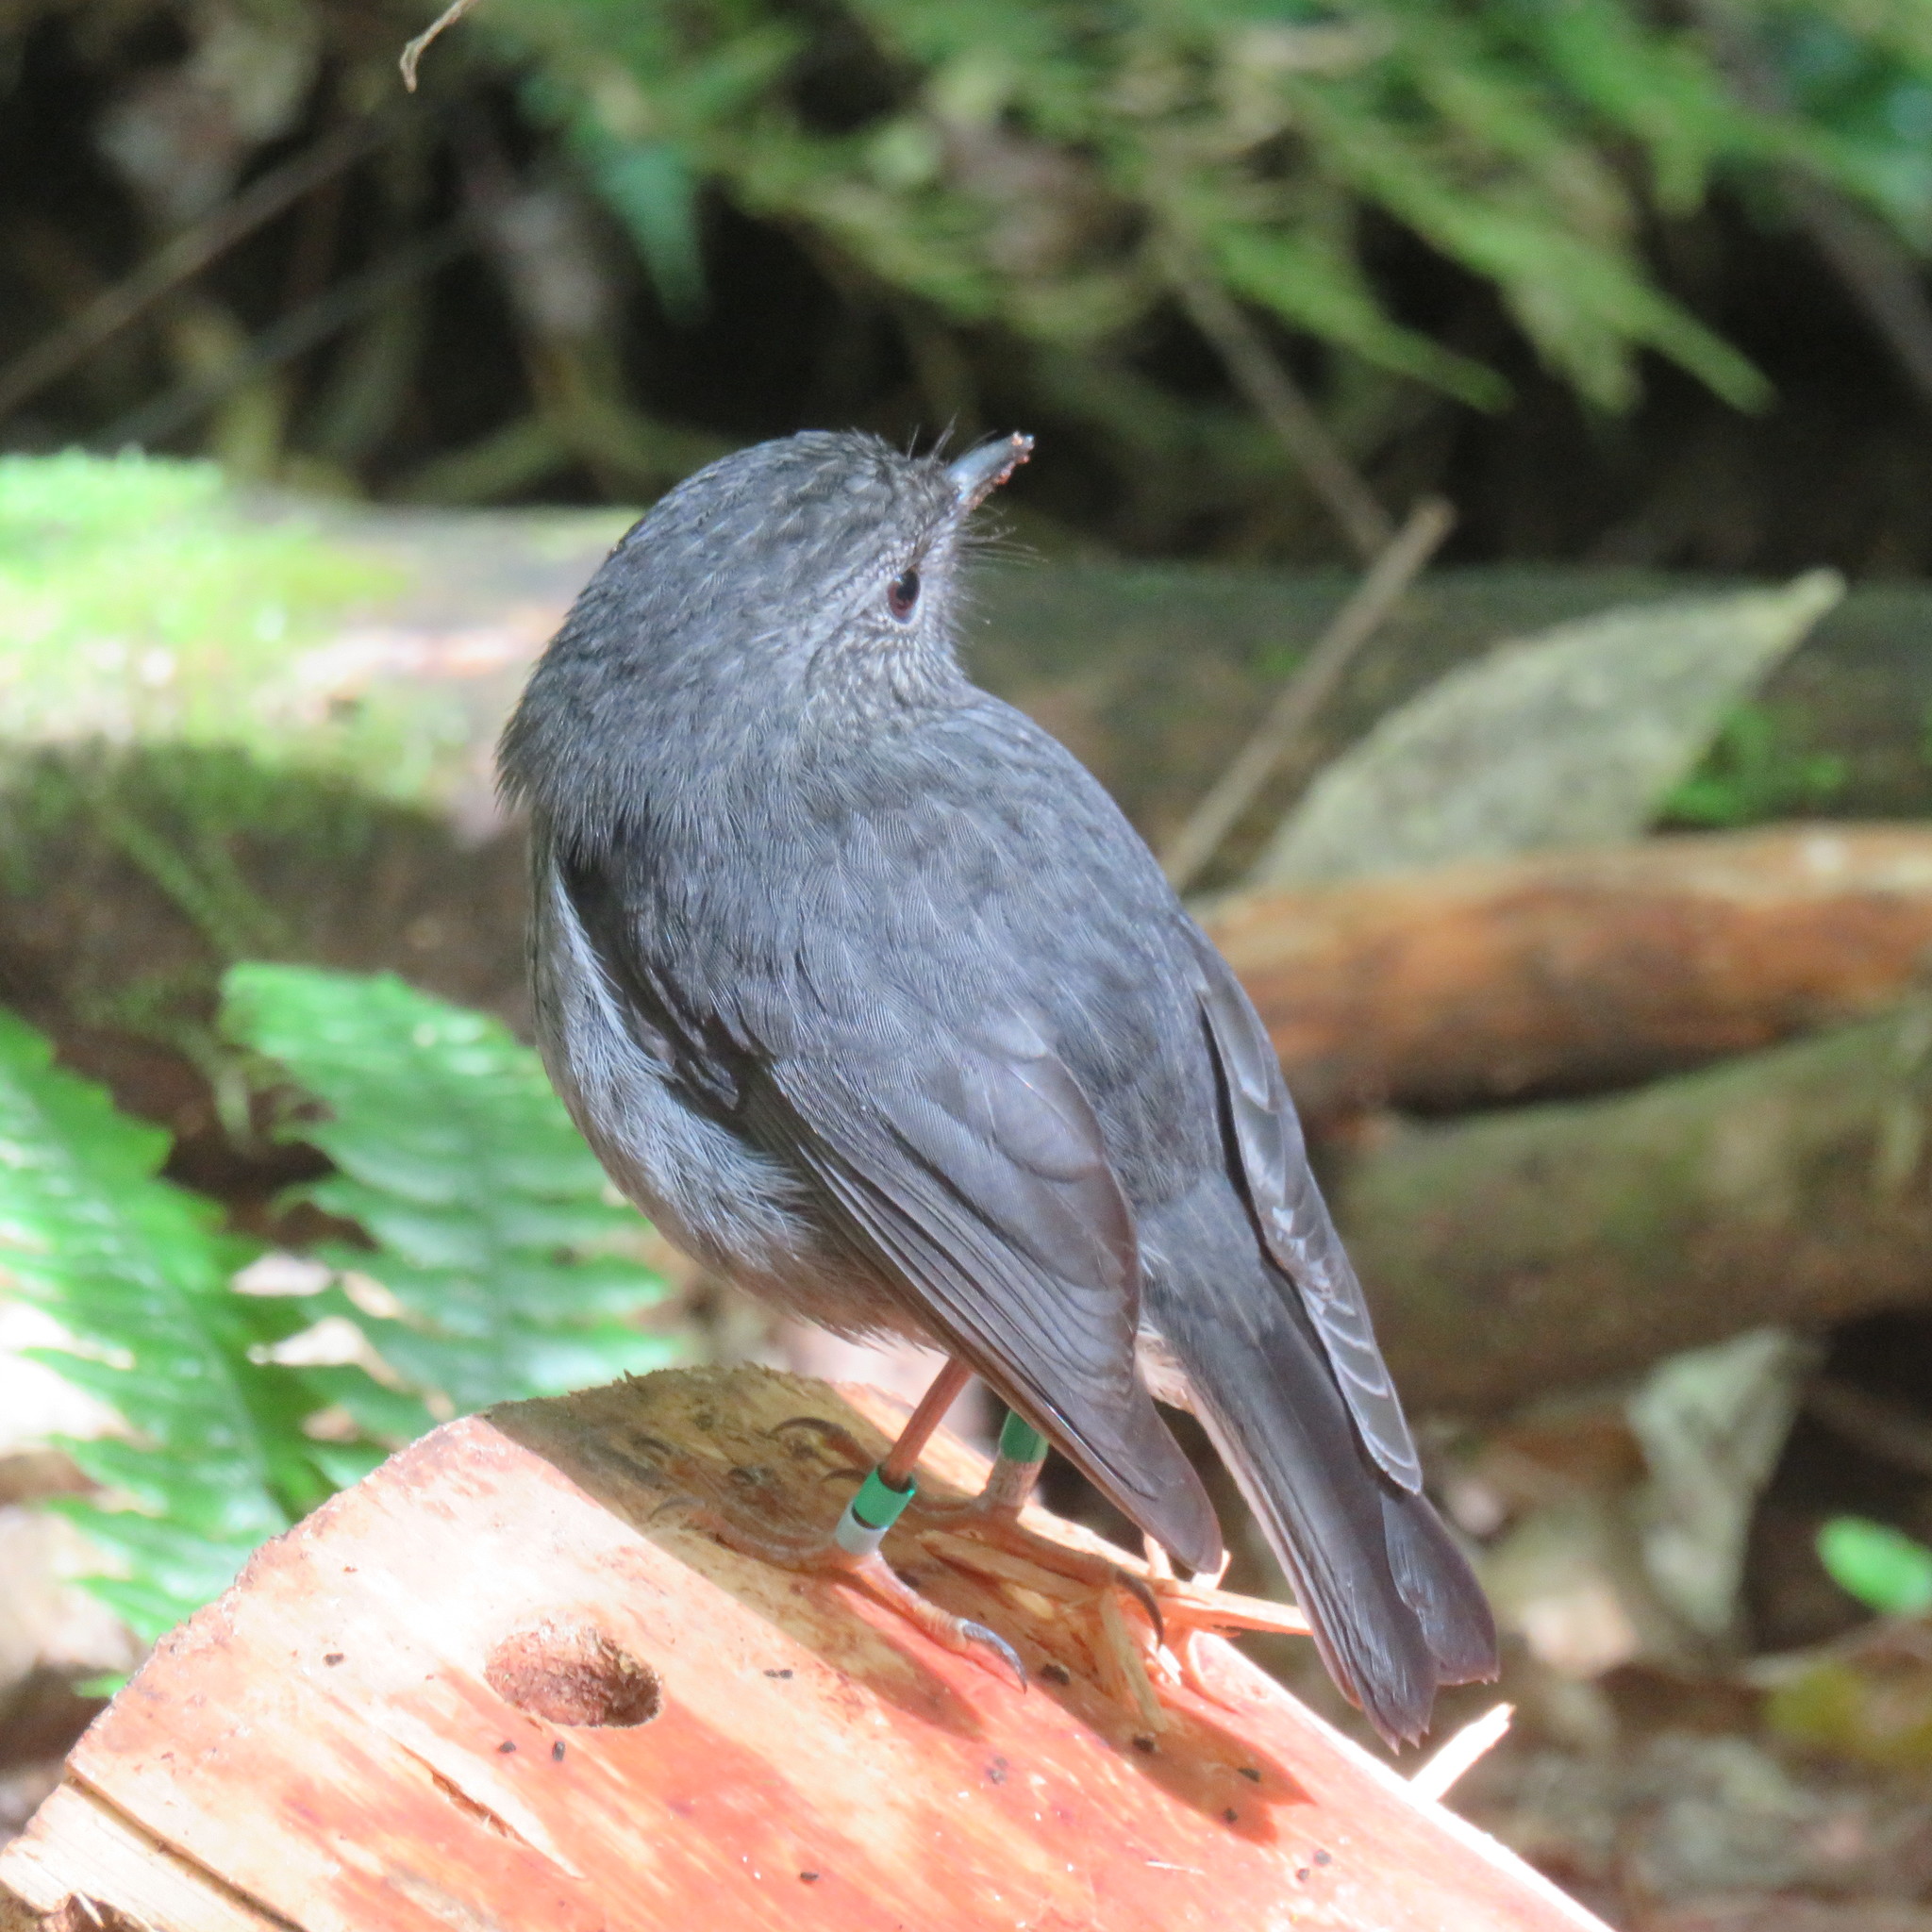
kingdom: Animalia
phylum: Chordata
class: Aves
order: Passeriformes
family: Petroicidae
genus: Petroica
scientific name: Petroica australis
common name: New zealand robin
